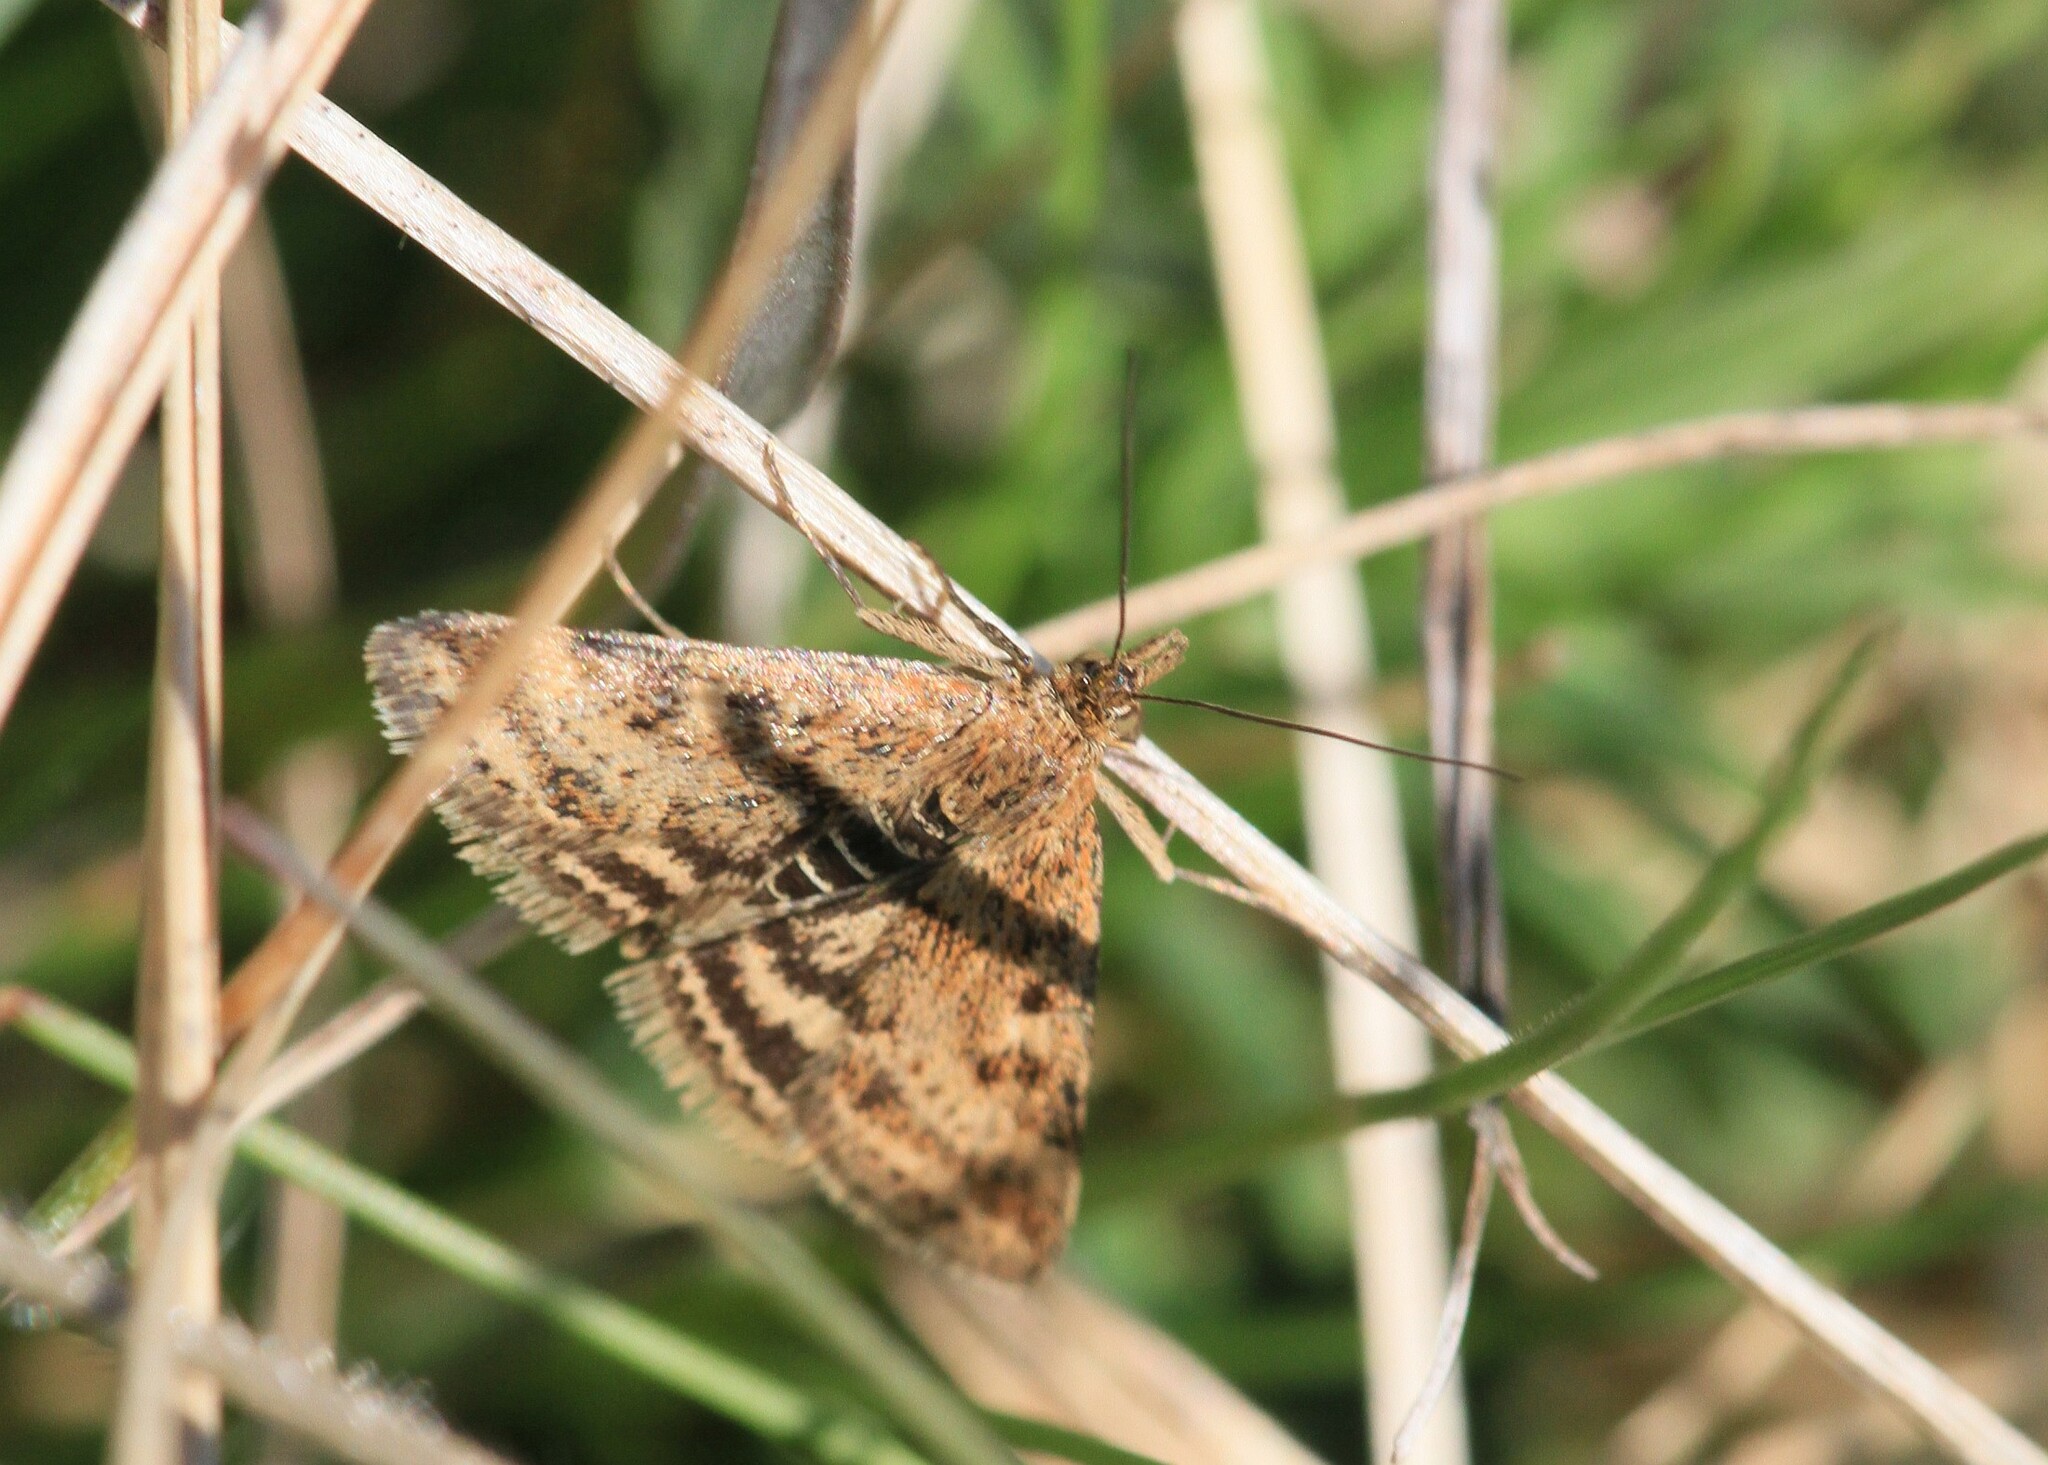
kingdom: Animalia
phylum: Arthropoda
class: Insecta
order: Lepidoptera
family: Crambidae
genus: Pyrausta
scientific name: Pyrausta despicata
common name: Straw-barred pearl
